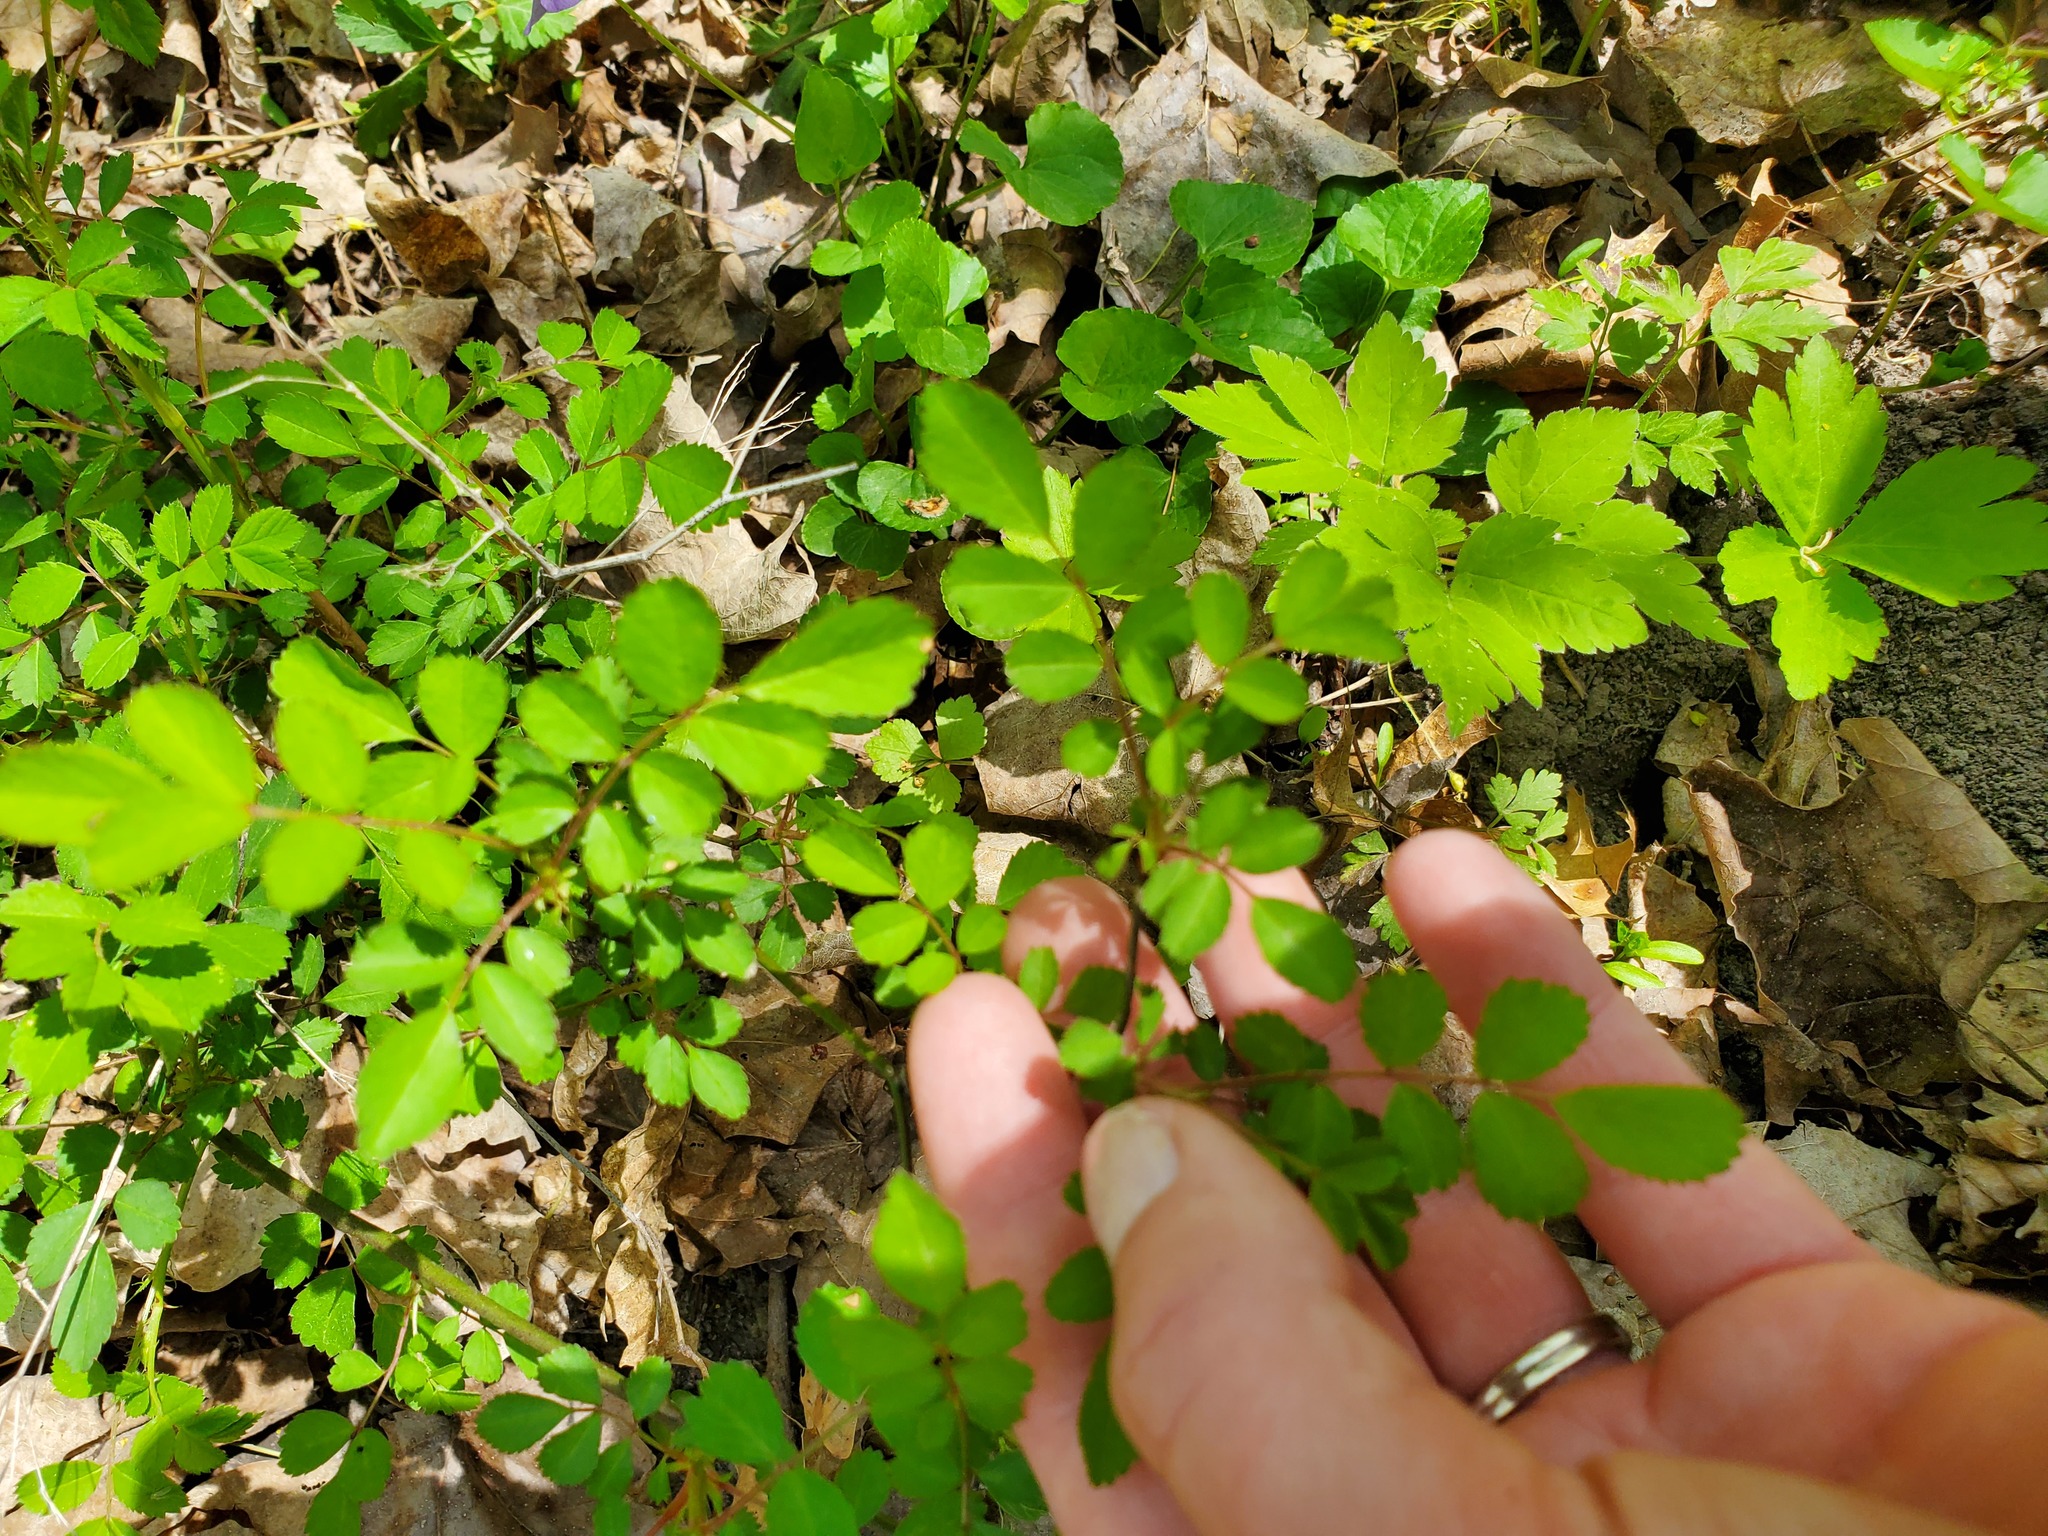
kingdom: Plantae
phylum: Tracheophyta
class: Magnoliopsida
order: Rosales
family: Rosaceae
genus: Rosa
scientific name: Rosa multiflora
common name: Multiflora rose
